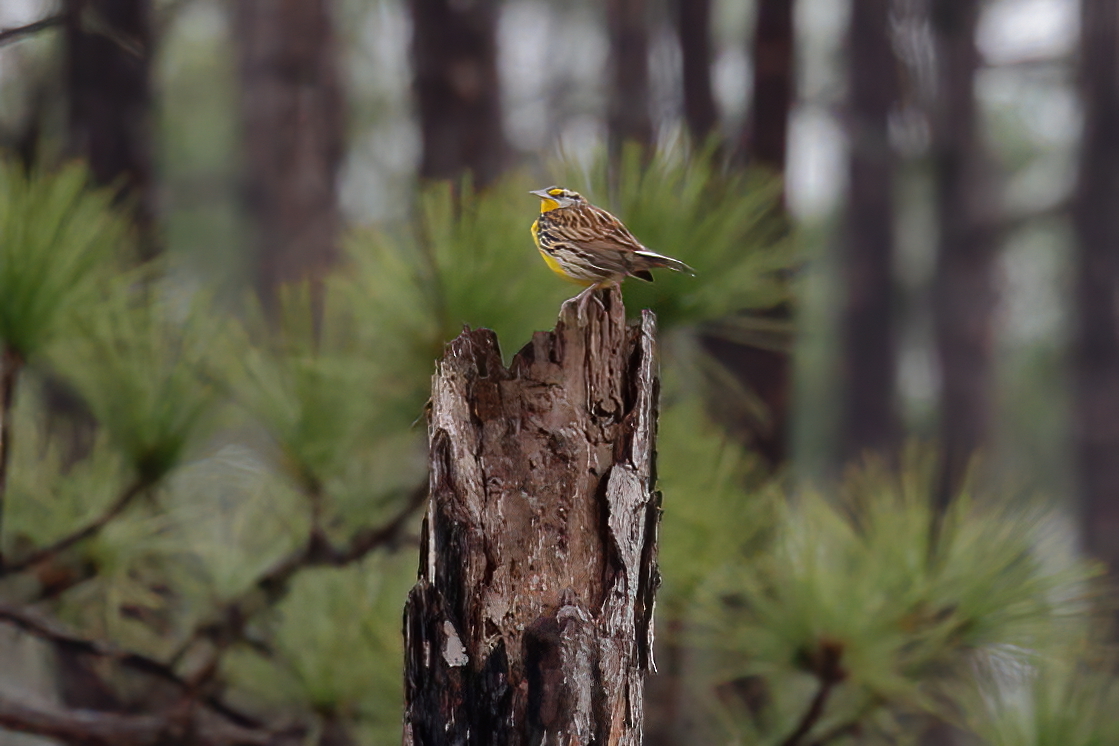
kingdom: Animalia
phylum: Chordata
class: Aves
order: Passeriformes
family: Icteridae
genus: Sturnella
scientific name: Sturnella magna
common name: Eastern meadowlark
